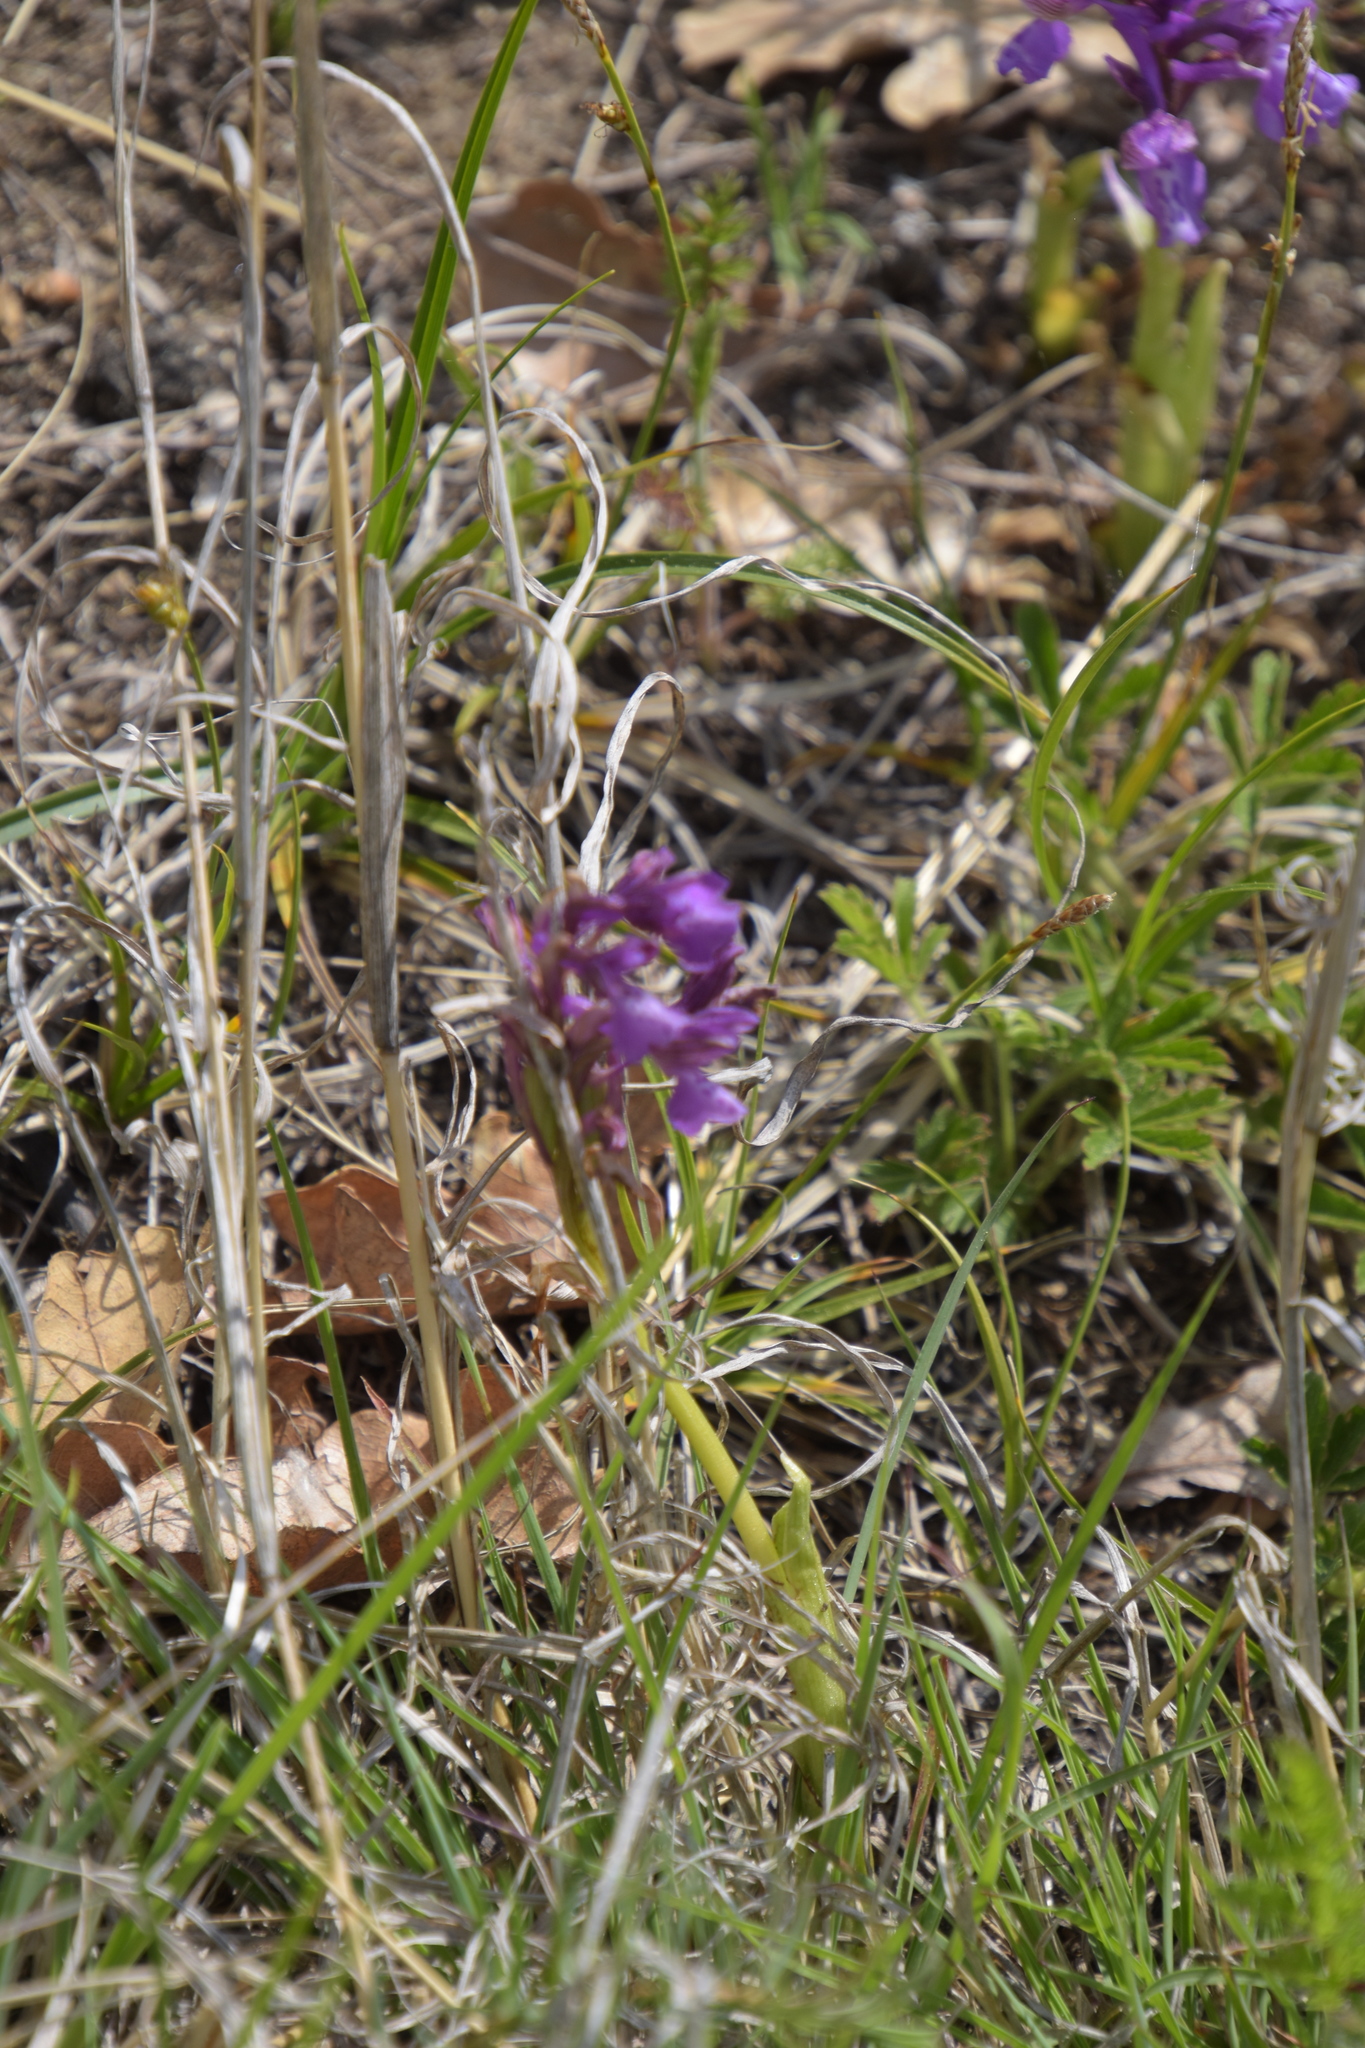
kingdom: Plantae
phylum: Tracheophyta
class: Liliopsida
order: Asparagales
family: Orchidaceae
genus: Anacamptis
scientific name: Anacamptis morio
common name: Green-winged orchid
